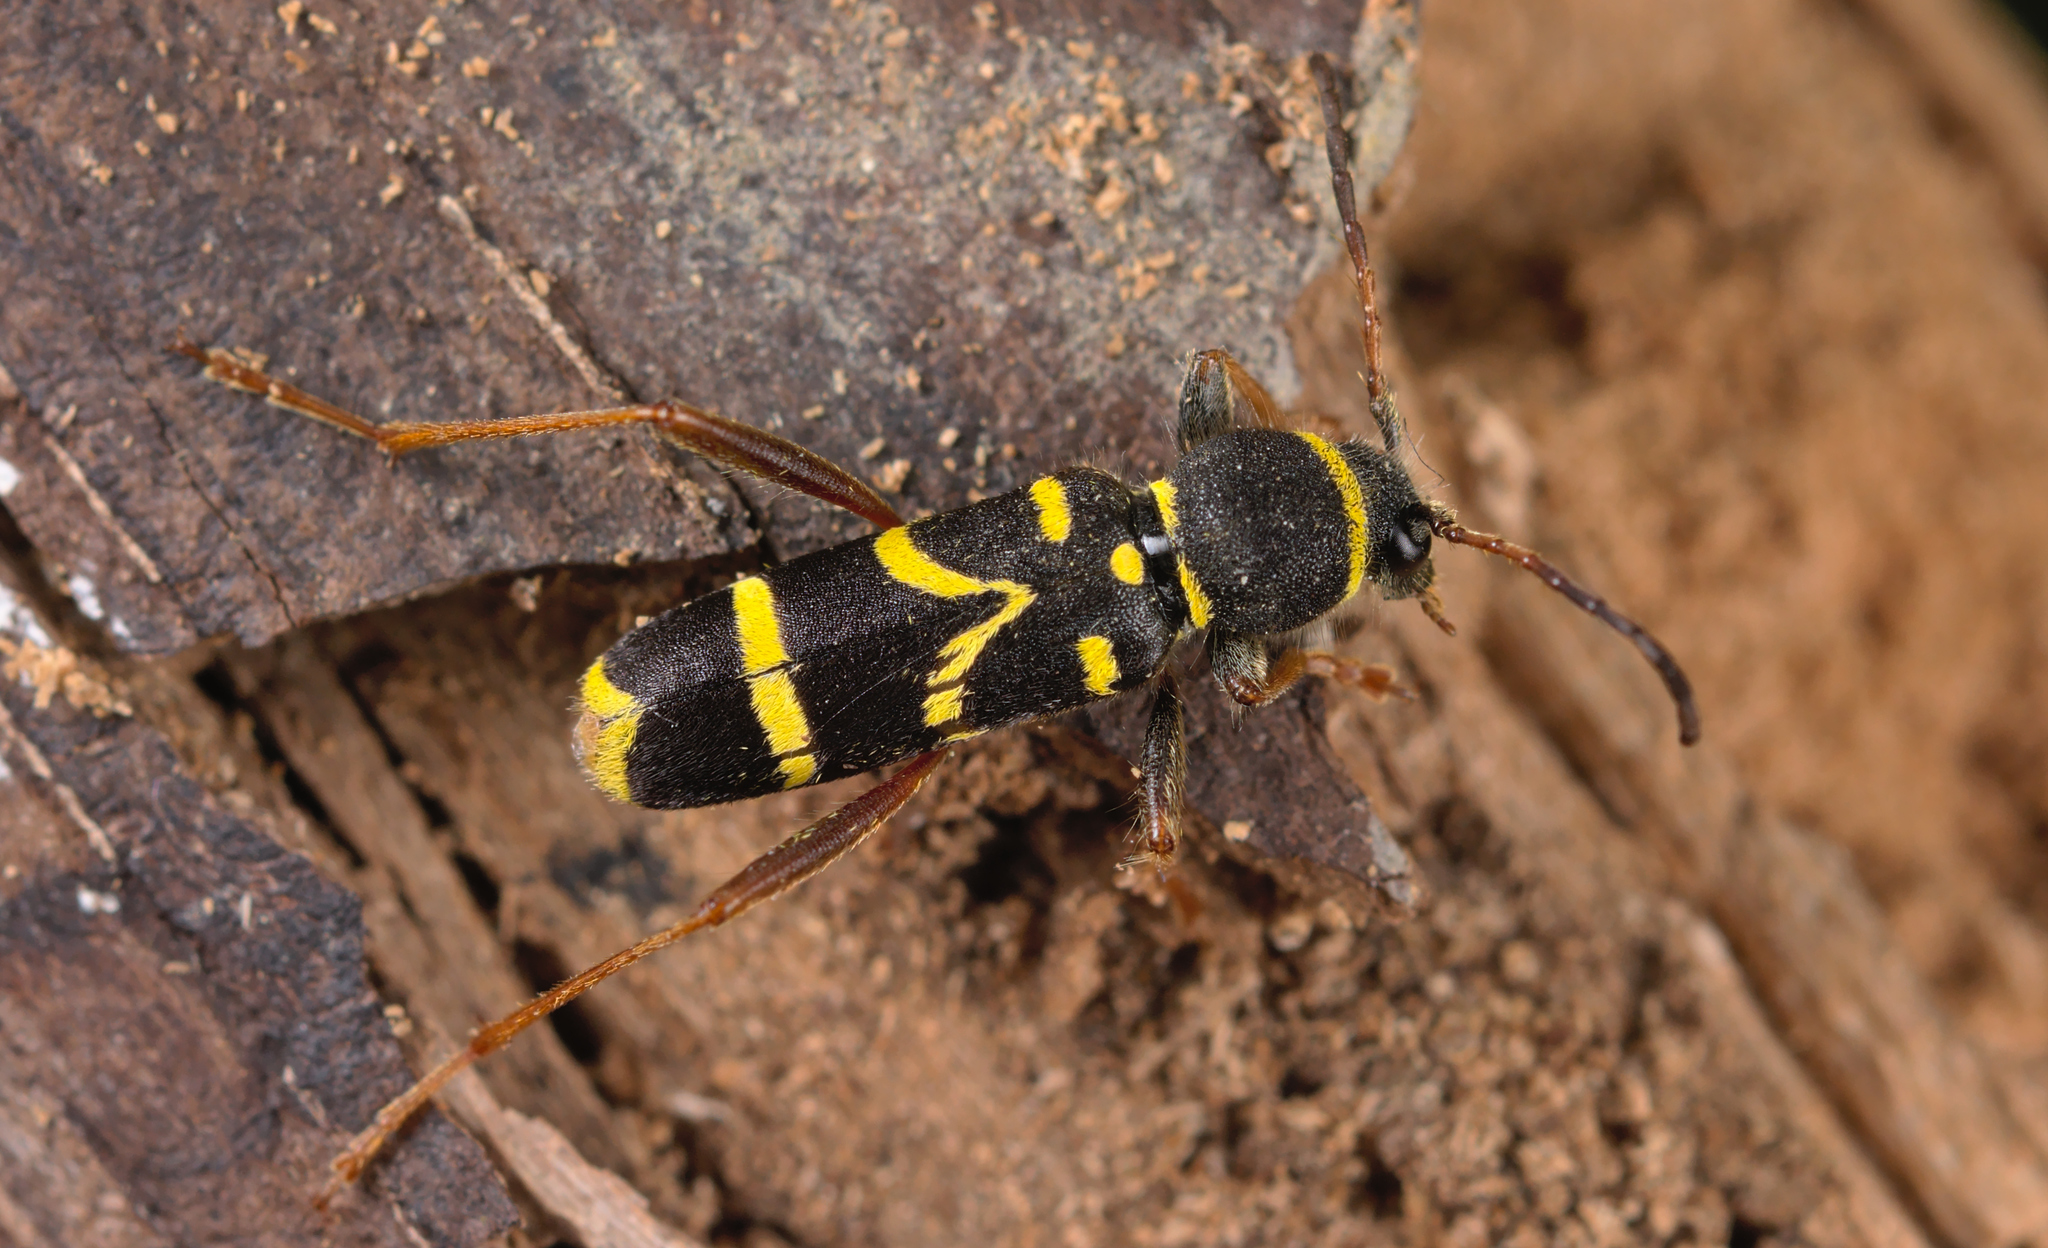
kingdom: Animalia
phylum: Arthropoda
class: Insecta
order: Coleoptera
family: Cerambycidae
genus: Clytus
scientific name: Clytus arietis
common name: Wasp beetle
